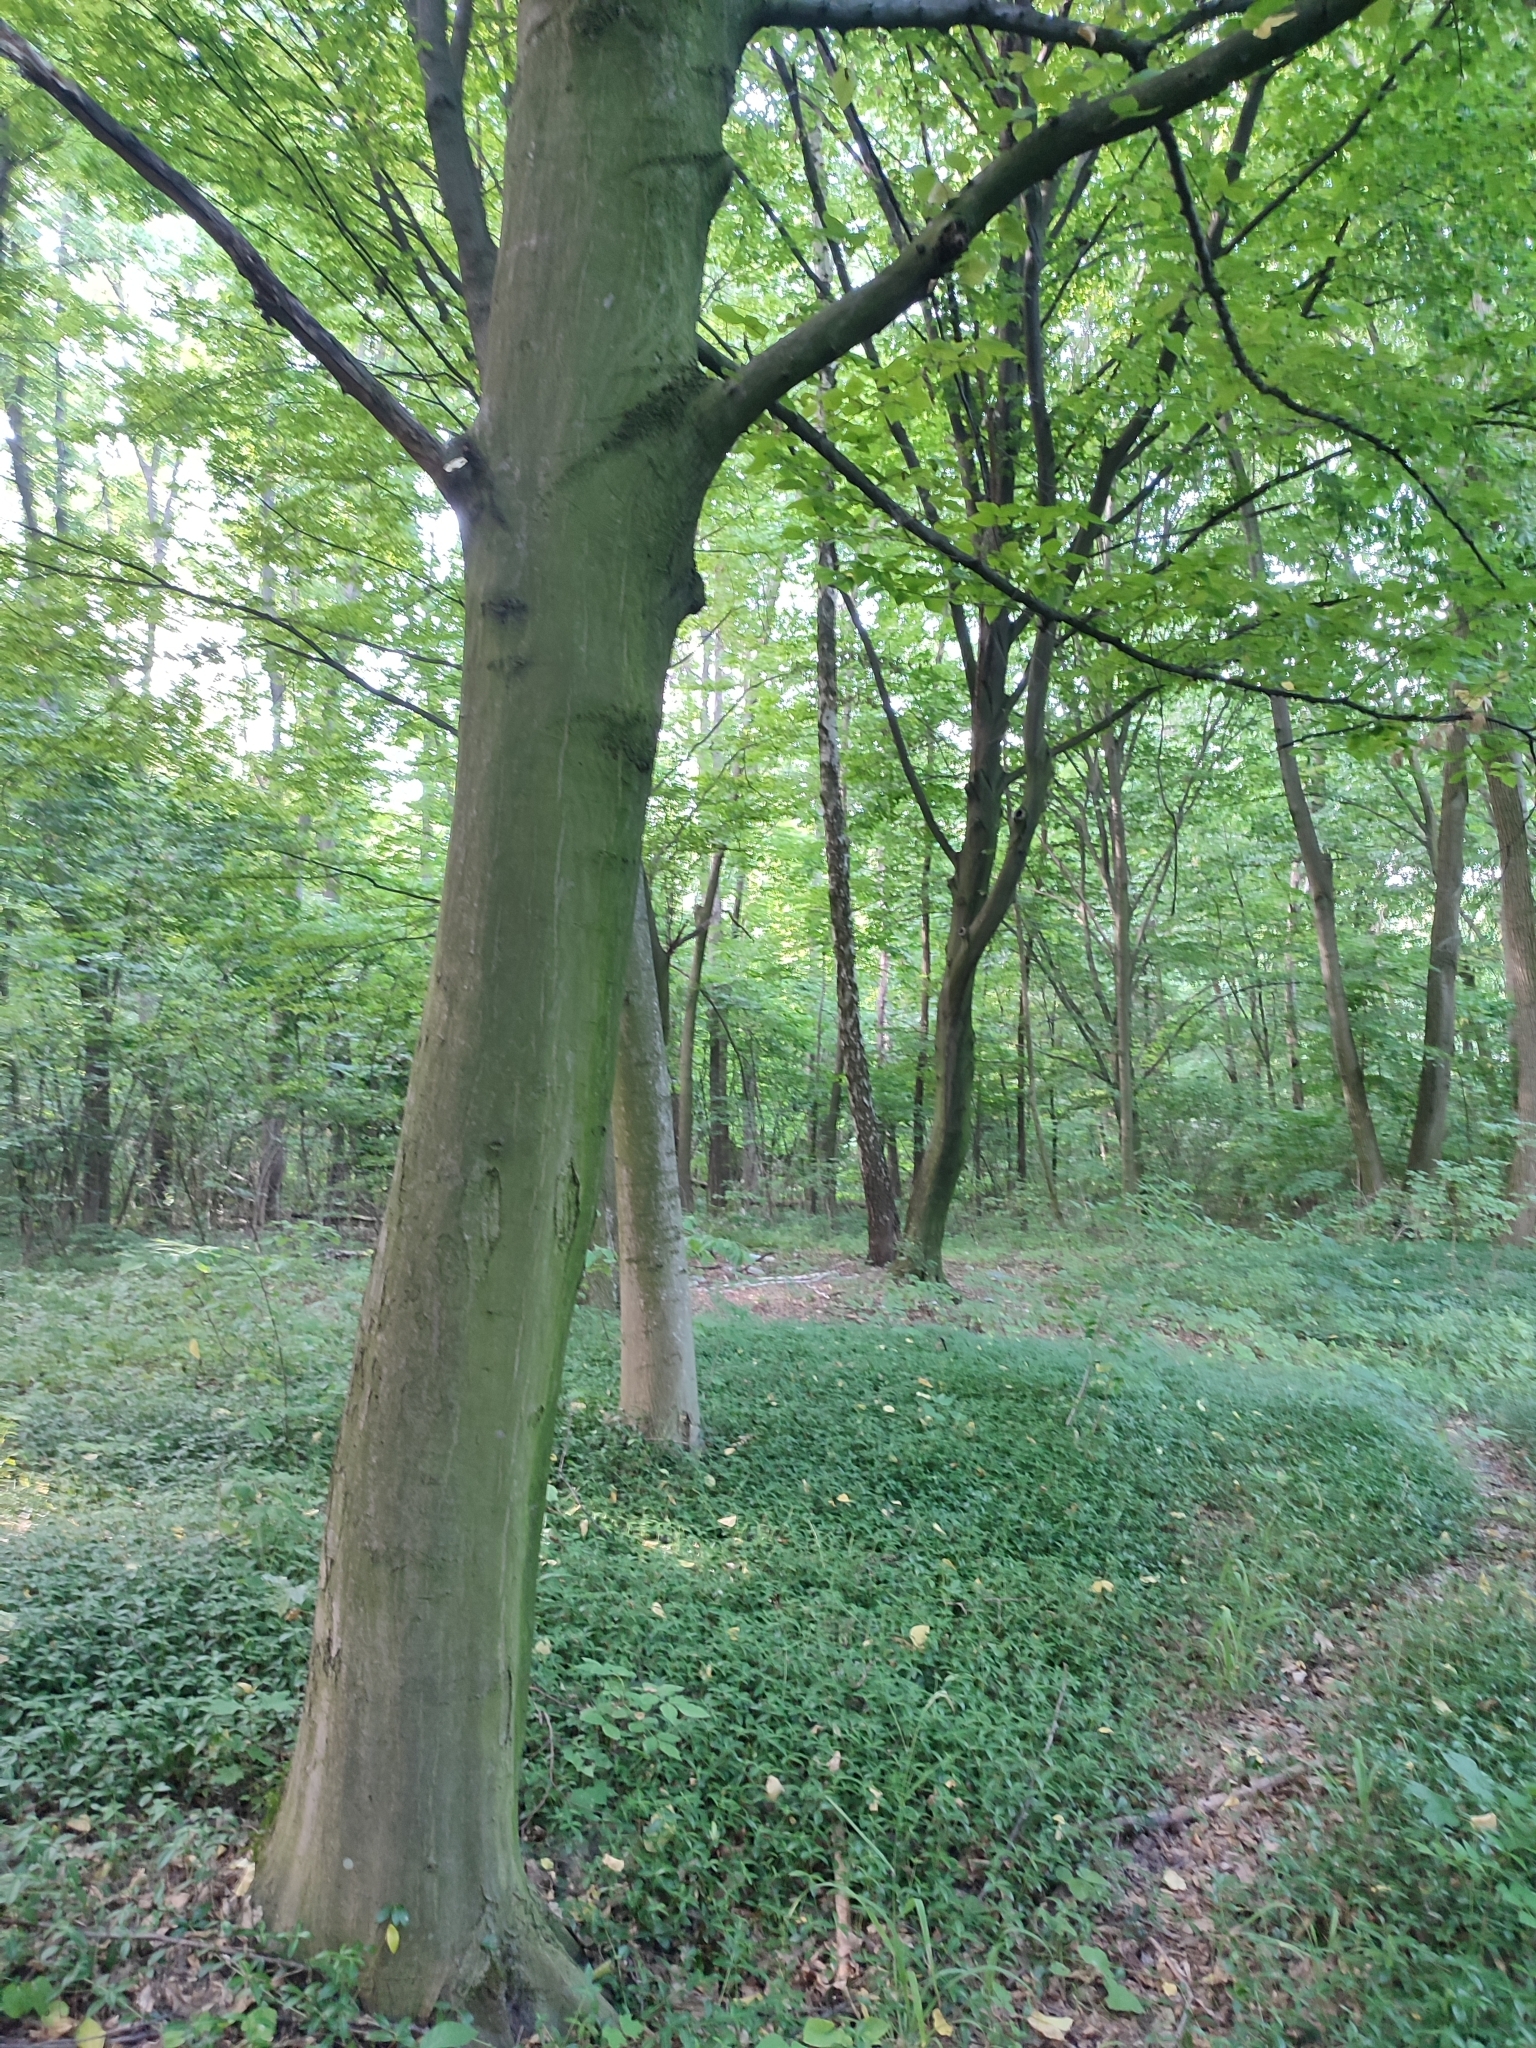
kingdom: Plantae
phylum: Tracheophyta
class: Magnoliopsida
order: Fagales
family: Betulaceae
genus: Carpinus
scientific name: Carpinus betulus
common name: Hornbeam
